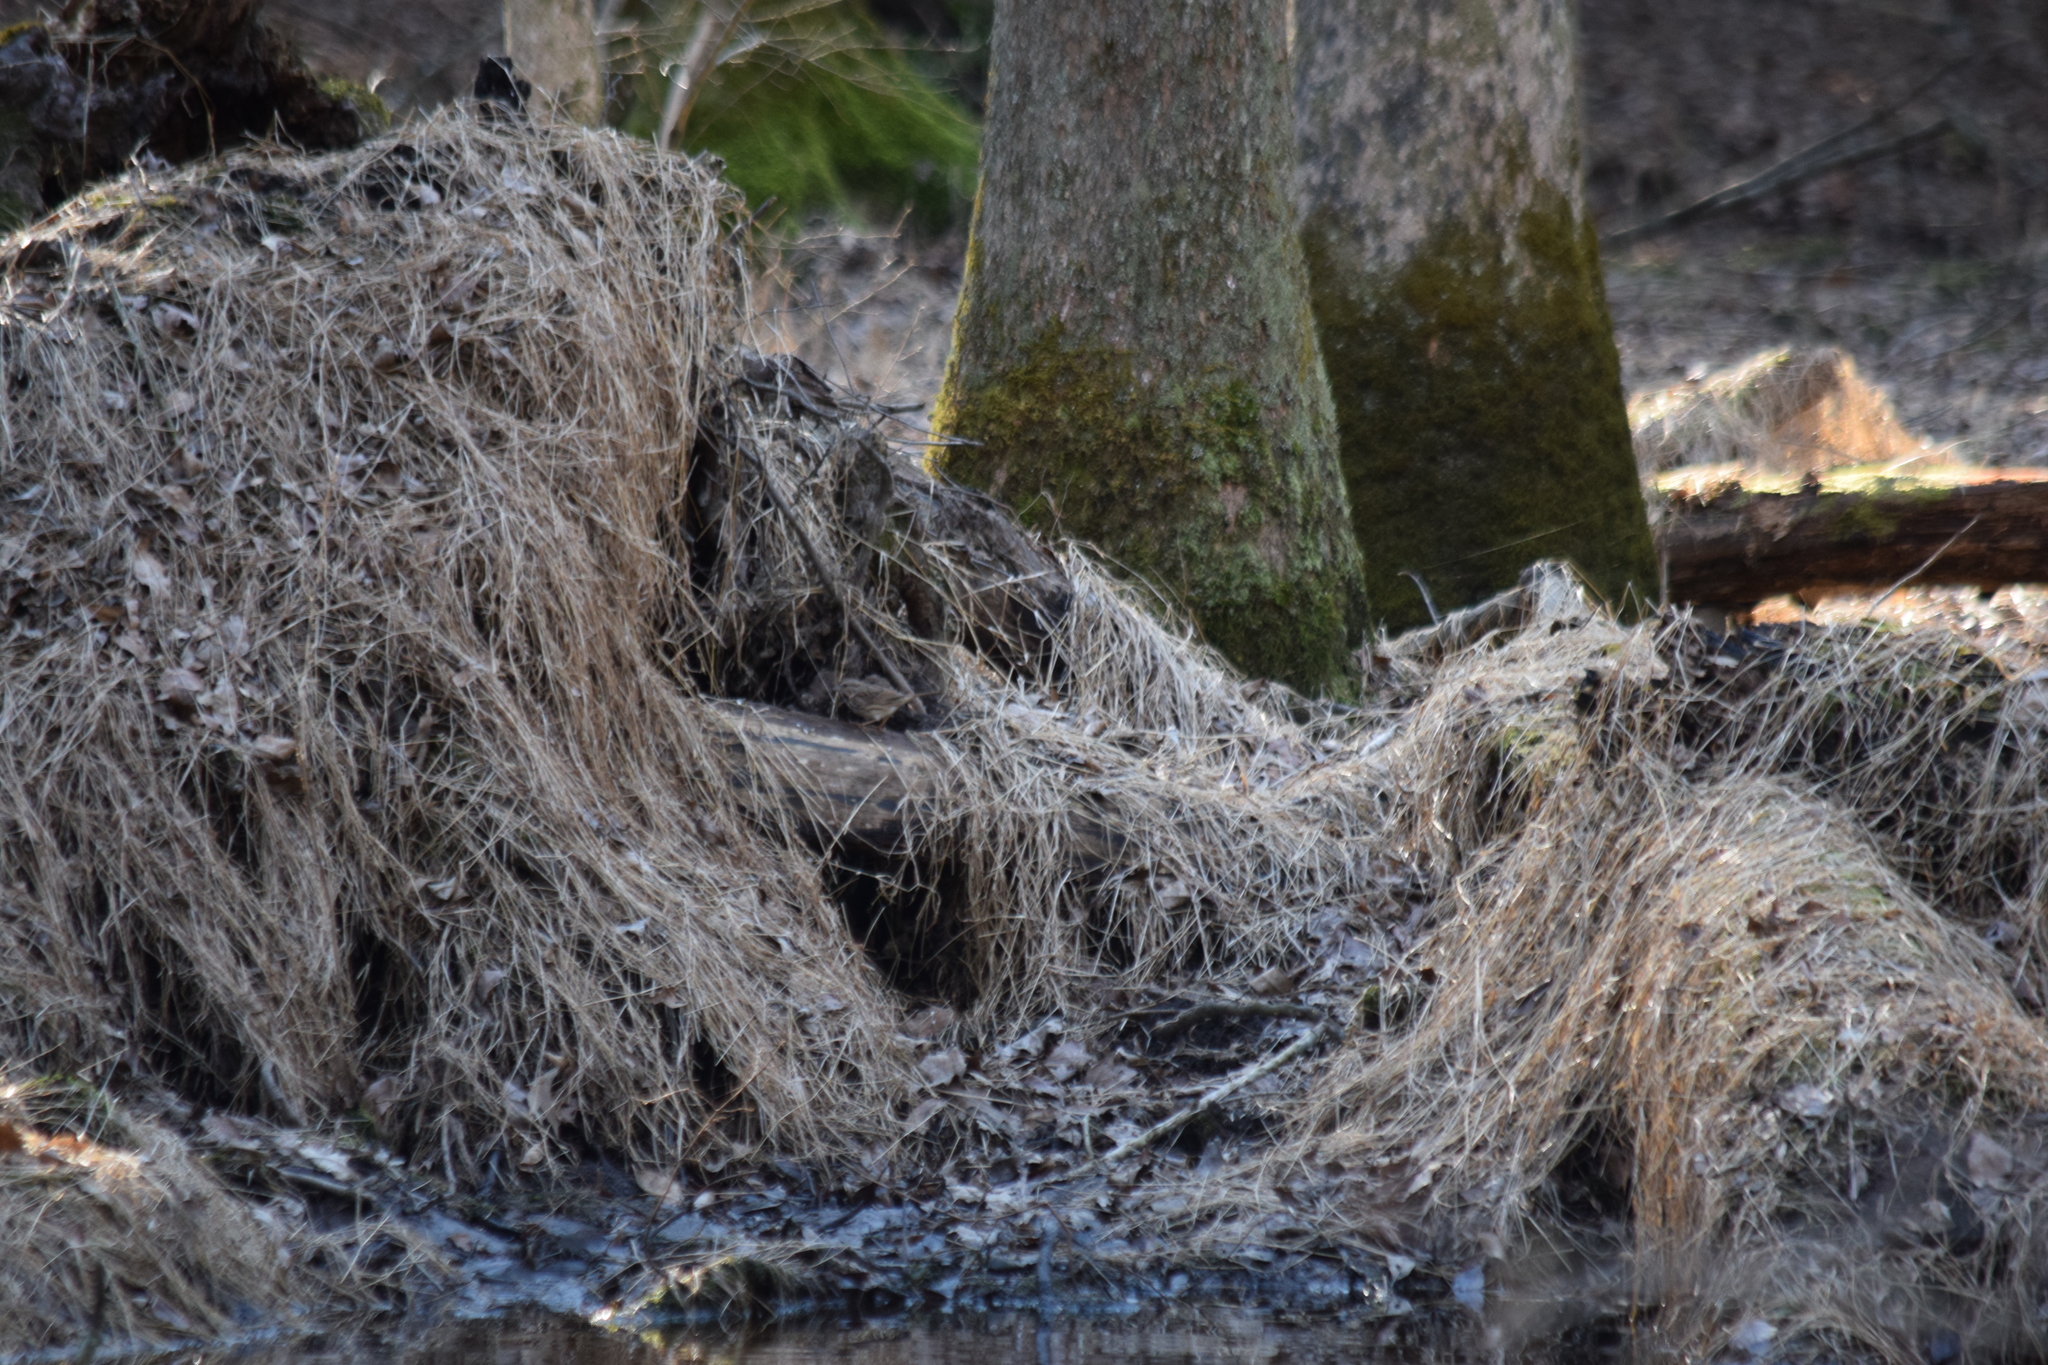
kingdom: Animalia
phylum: Chordata
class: Aves
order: Passeriformes
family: Passerellidae
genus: Melospiza
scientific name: Melospiza melodia
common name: Song sparrow
